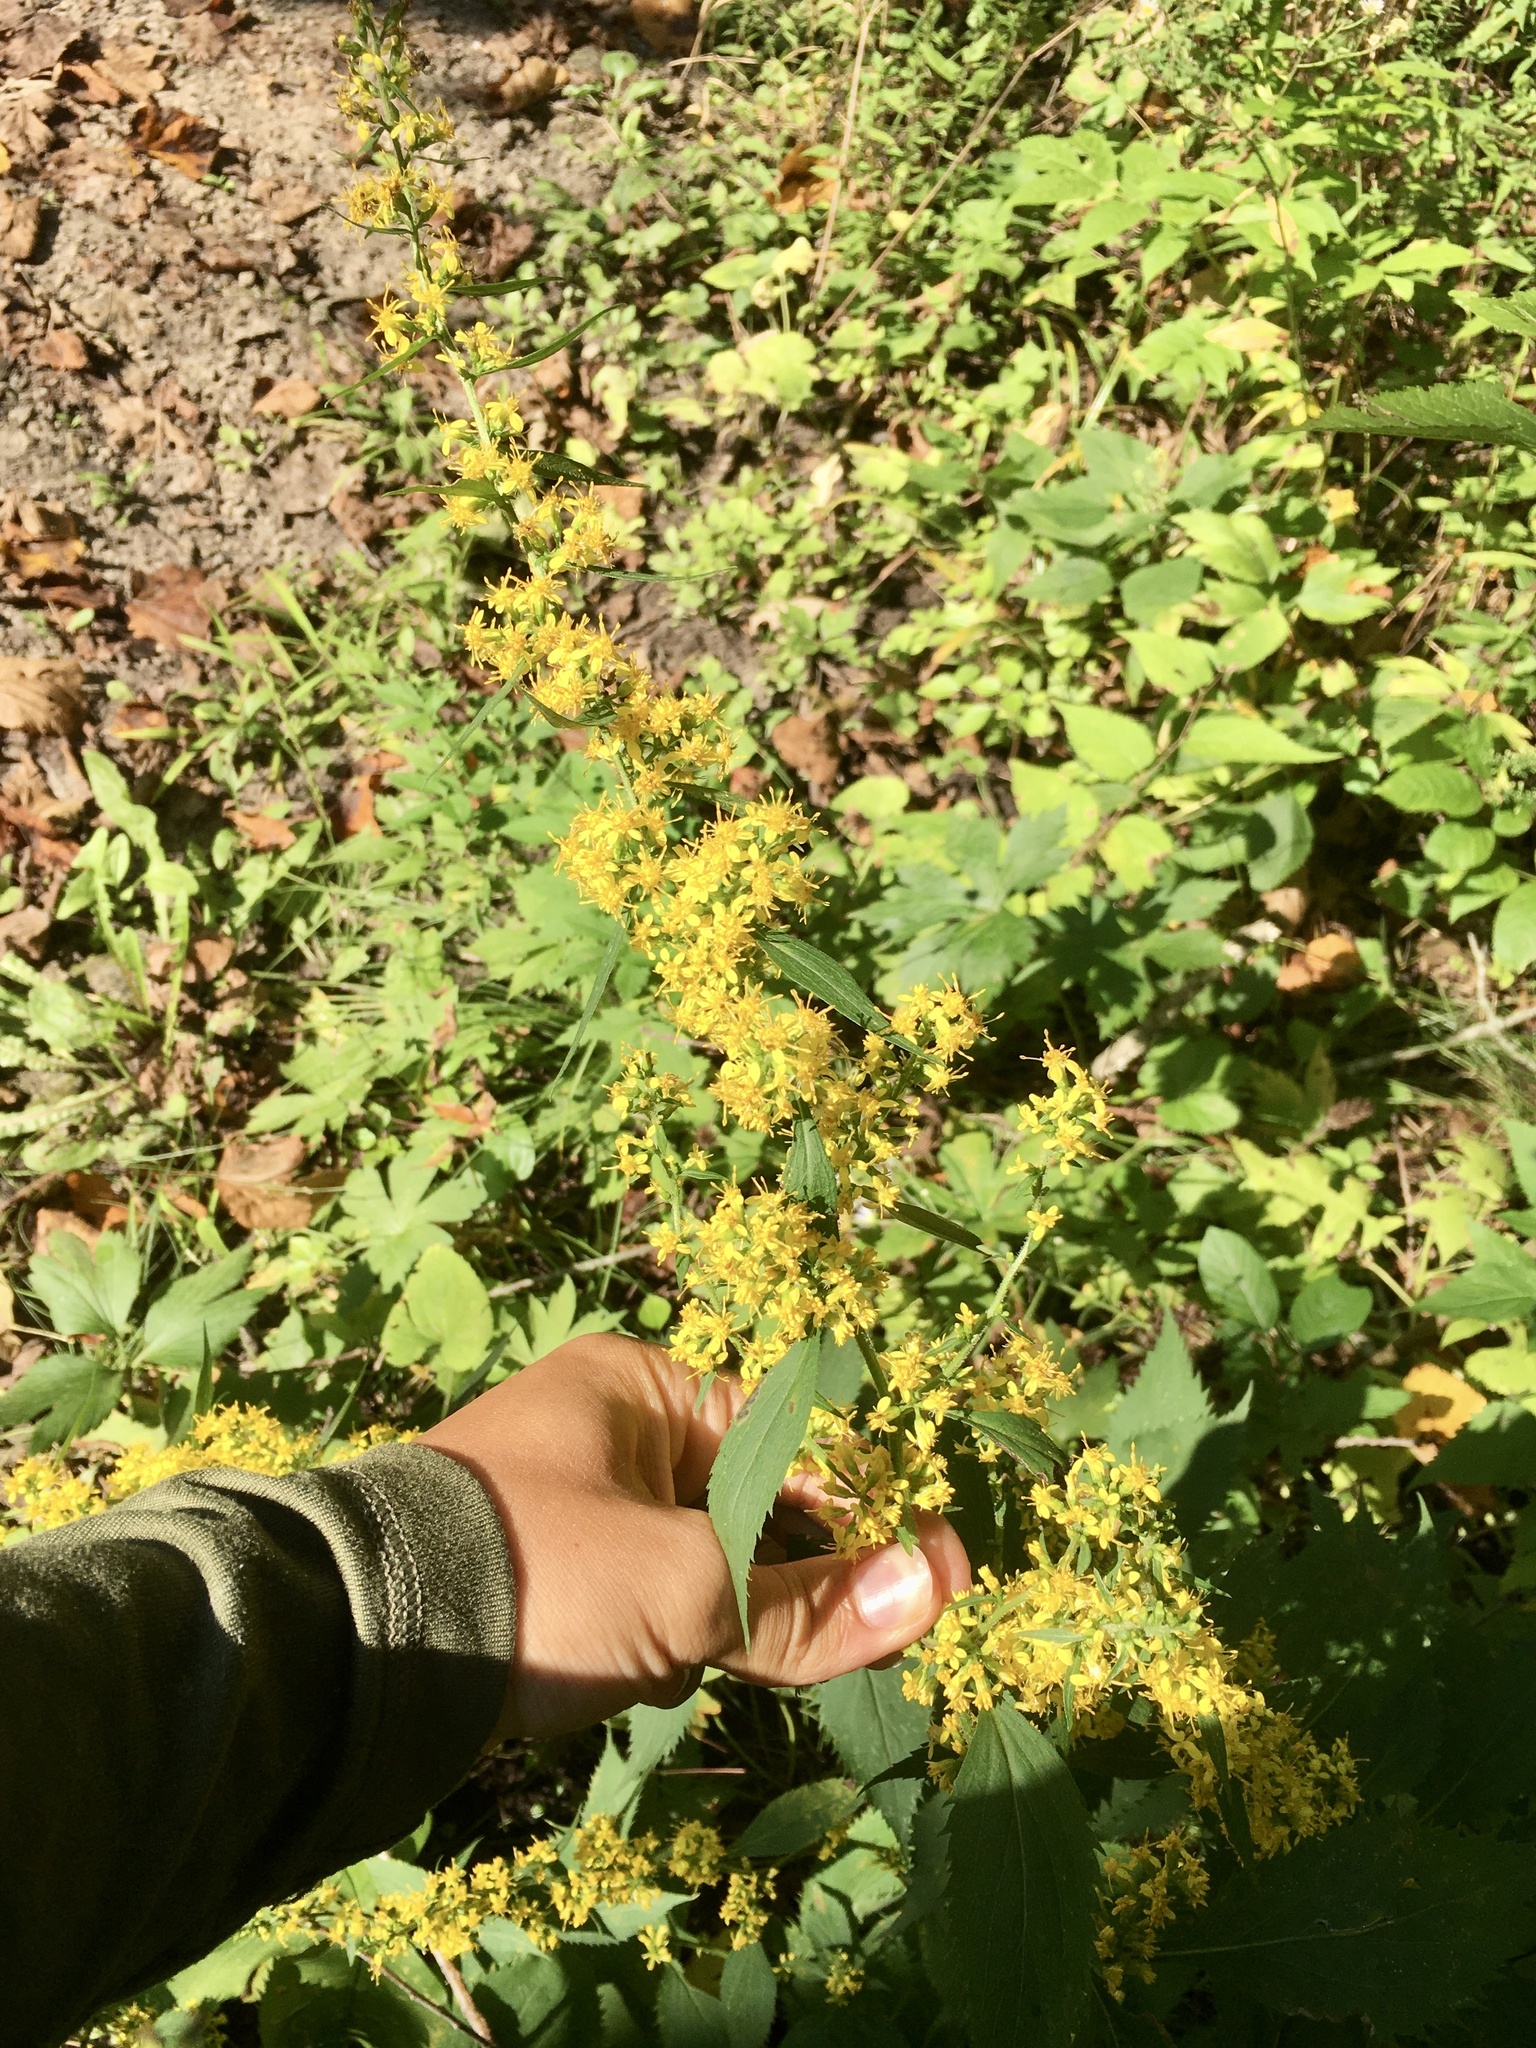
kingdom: Plantae
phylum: Tracheophyta
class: Magnoliopsida
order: Asterales
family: Asteraceae
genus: Solidago
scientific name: Solidago flexicaulis
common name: Zig-zag goldenrod
